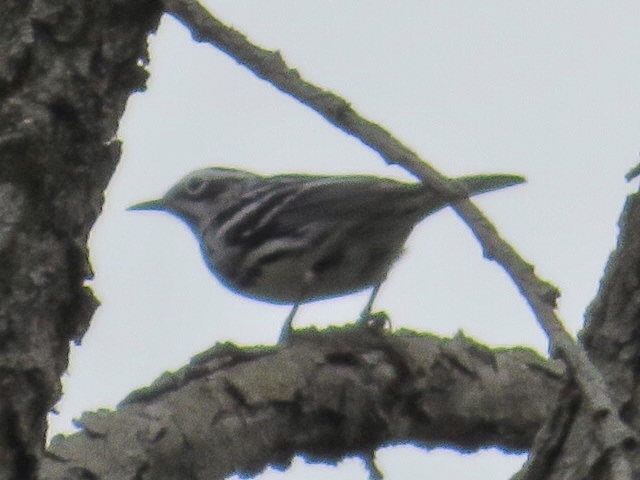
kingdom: Animalia
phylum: Chordata
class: Aves
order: Passeriformes
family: Parulidae
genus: Mniotilta
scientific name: Mniotilta varia
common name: Black-and-white warbler
